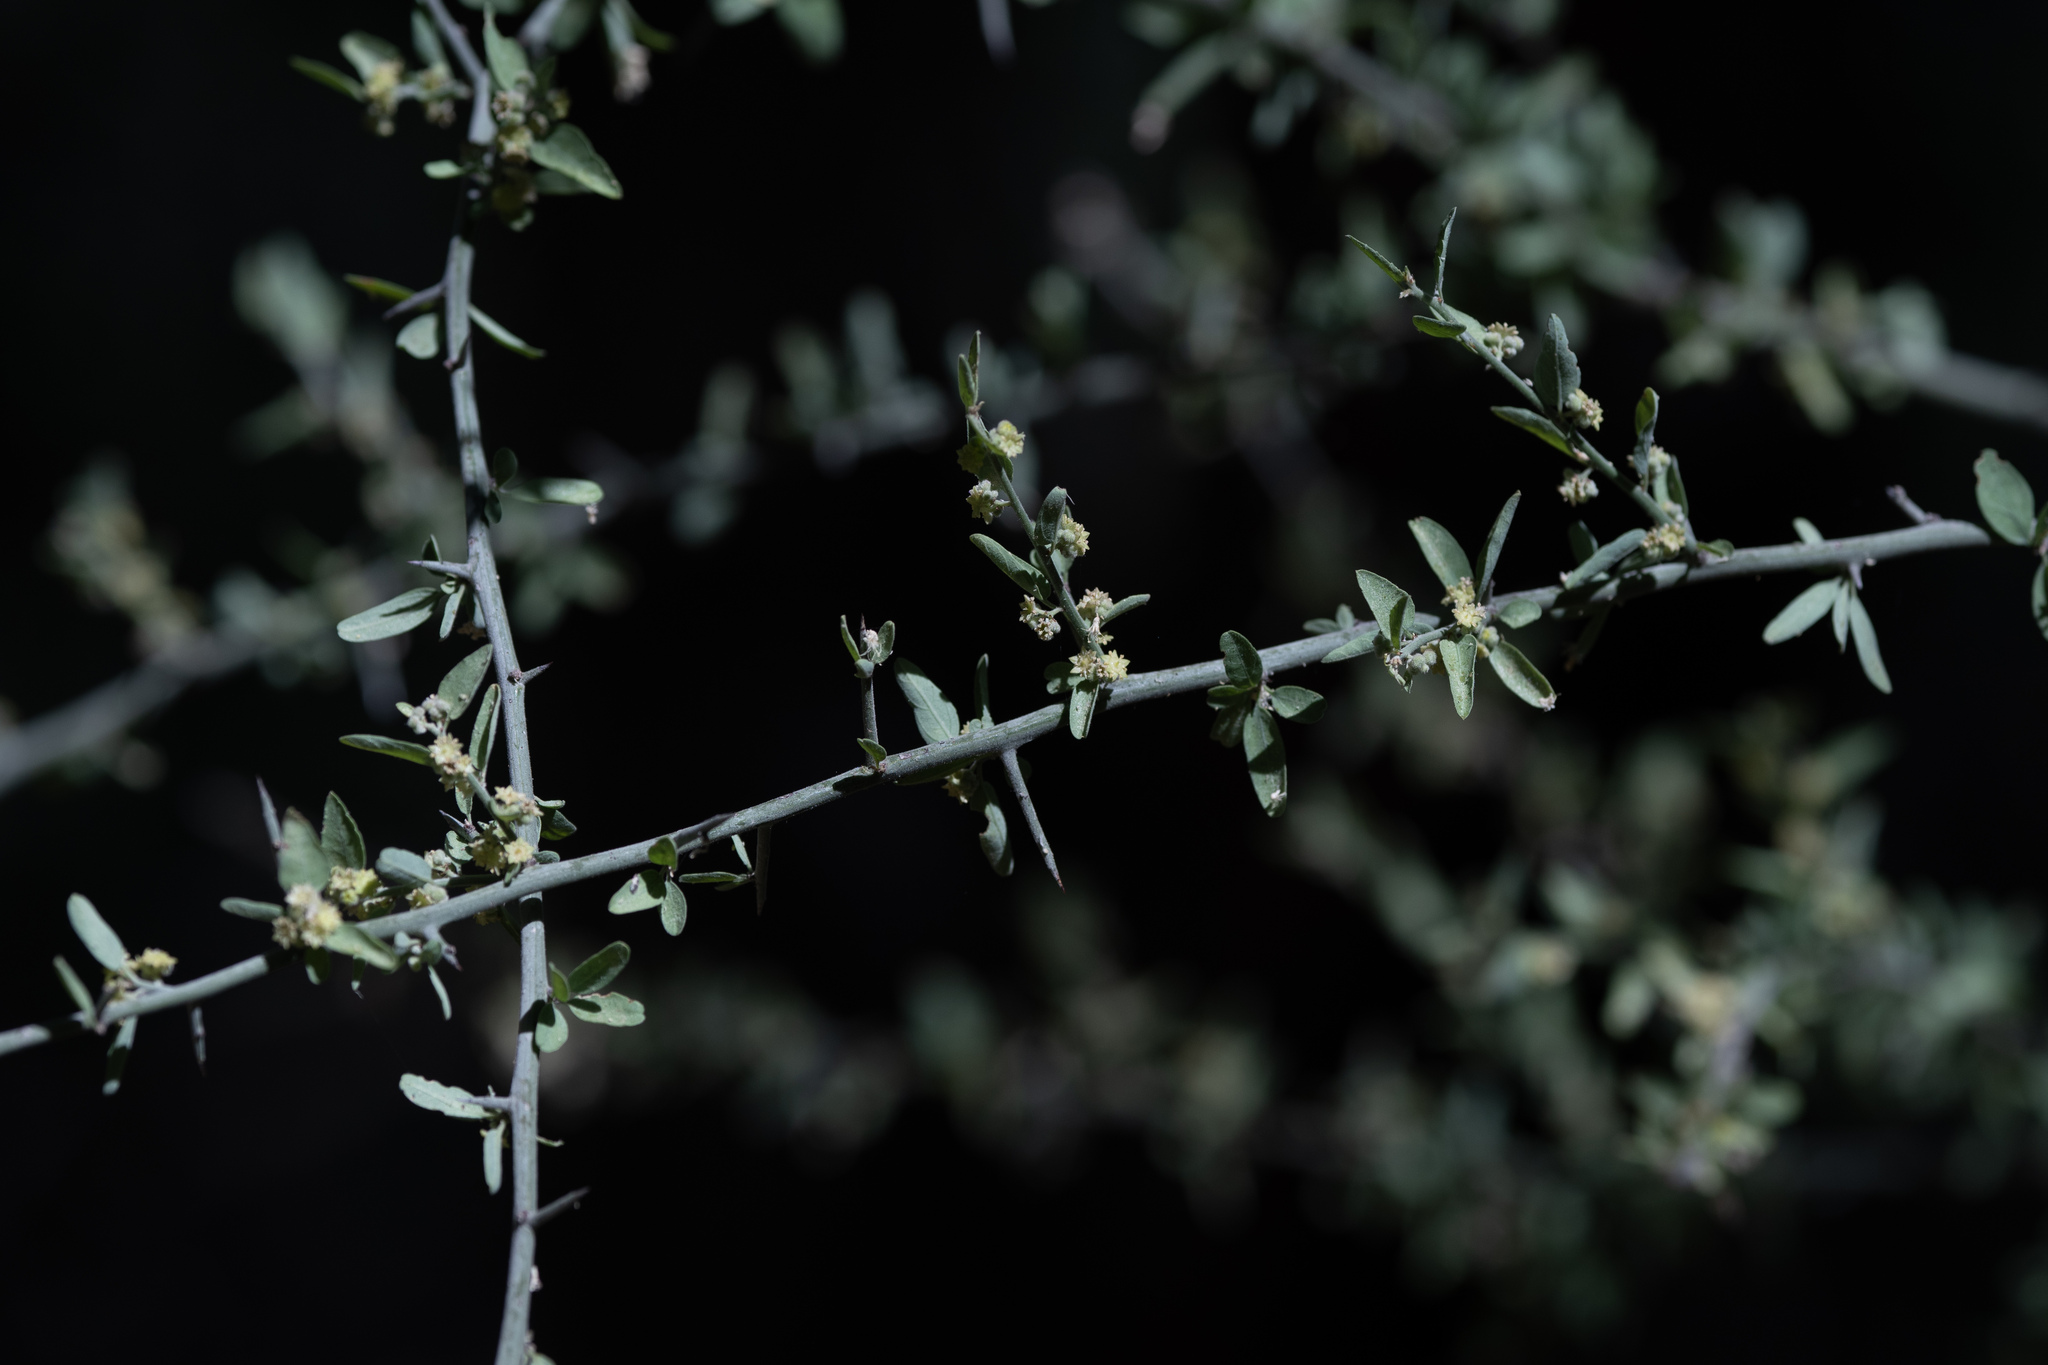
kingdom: Plantae
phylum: Tracheophyta
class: Magnoliopsida
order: Rosales
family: Rhamnaceae
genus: Sarcomphalus
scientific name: Sarcomphalus obtusifolius
